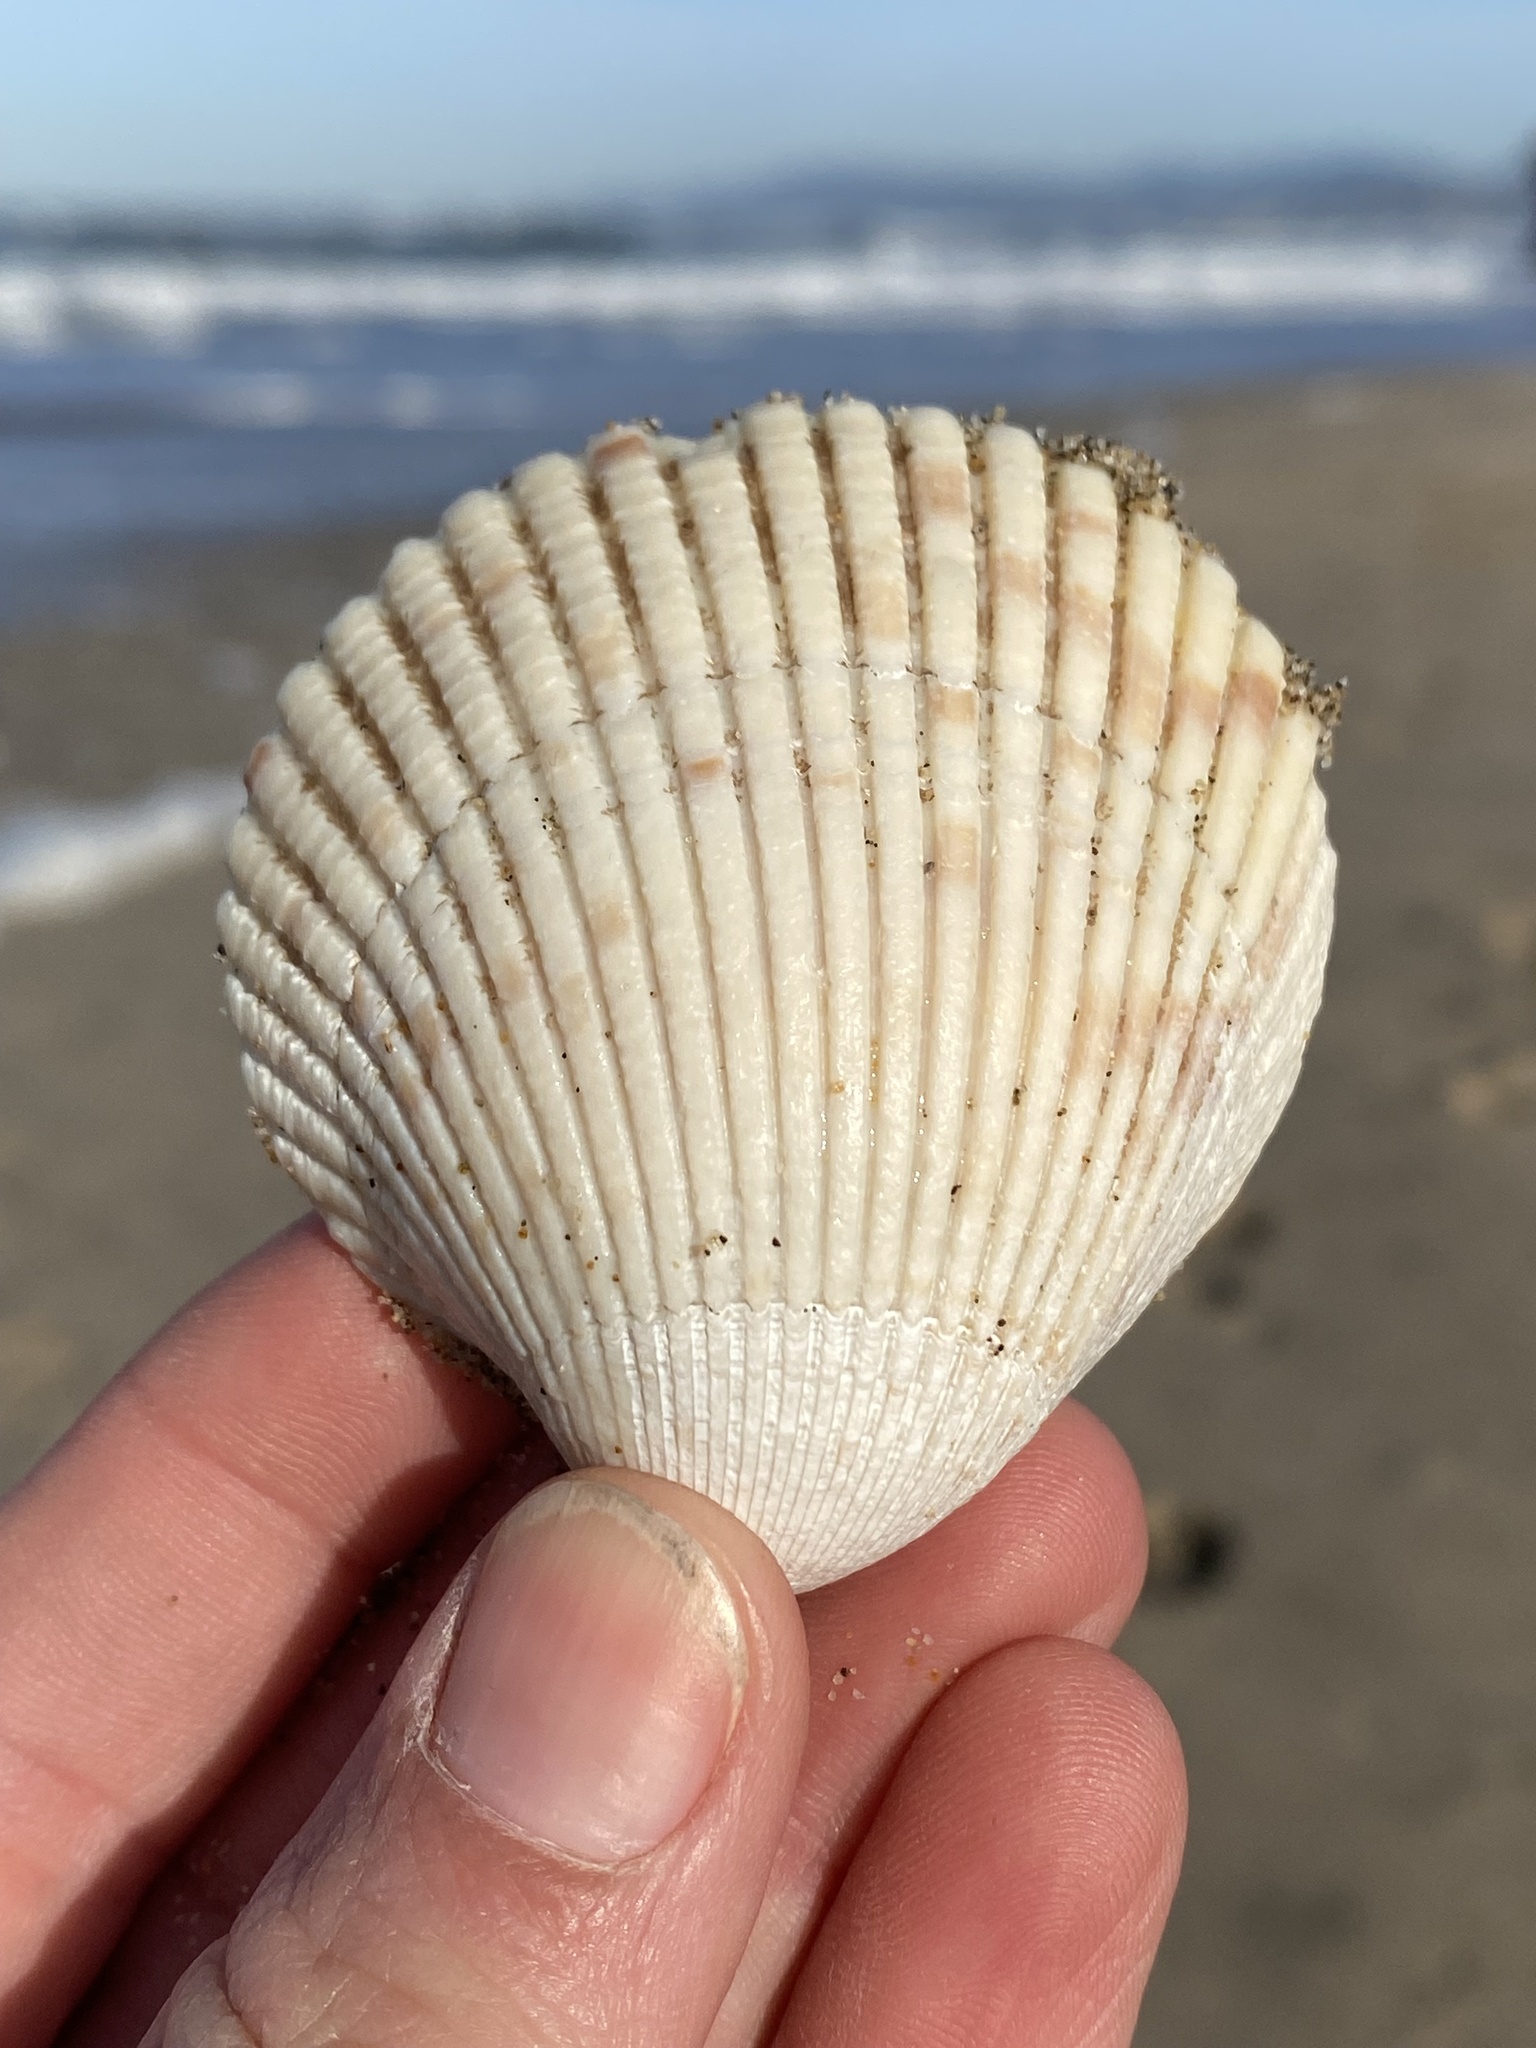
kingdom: Animalia
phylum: Mollusca
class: Bivalvia
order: Cardiida
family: Cardiidae
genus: Clinocardium
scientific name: Clinocardium nuttallii
